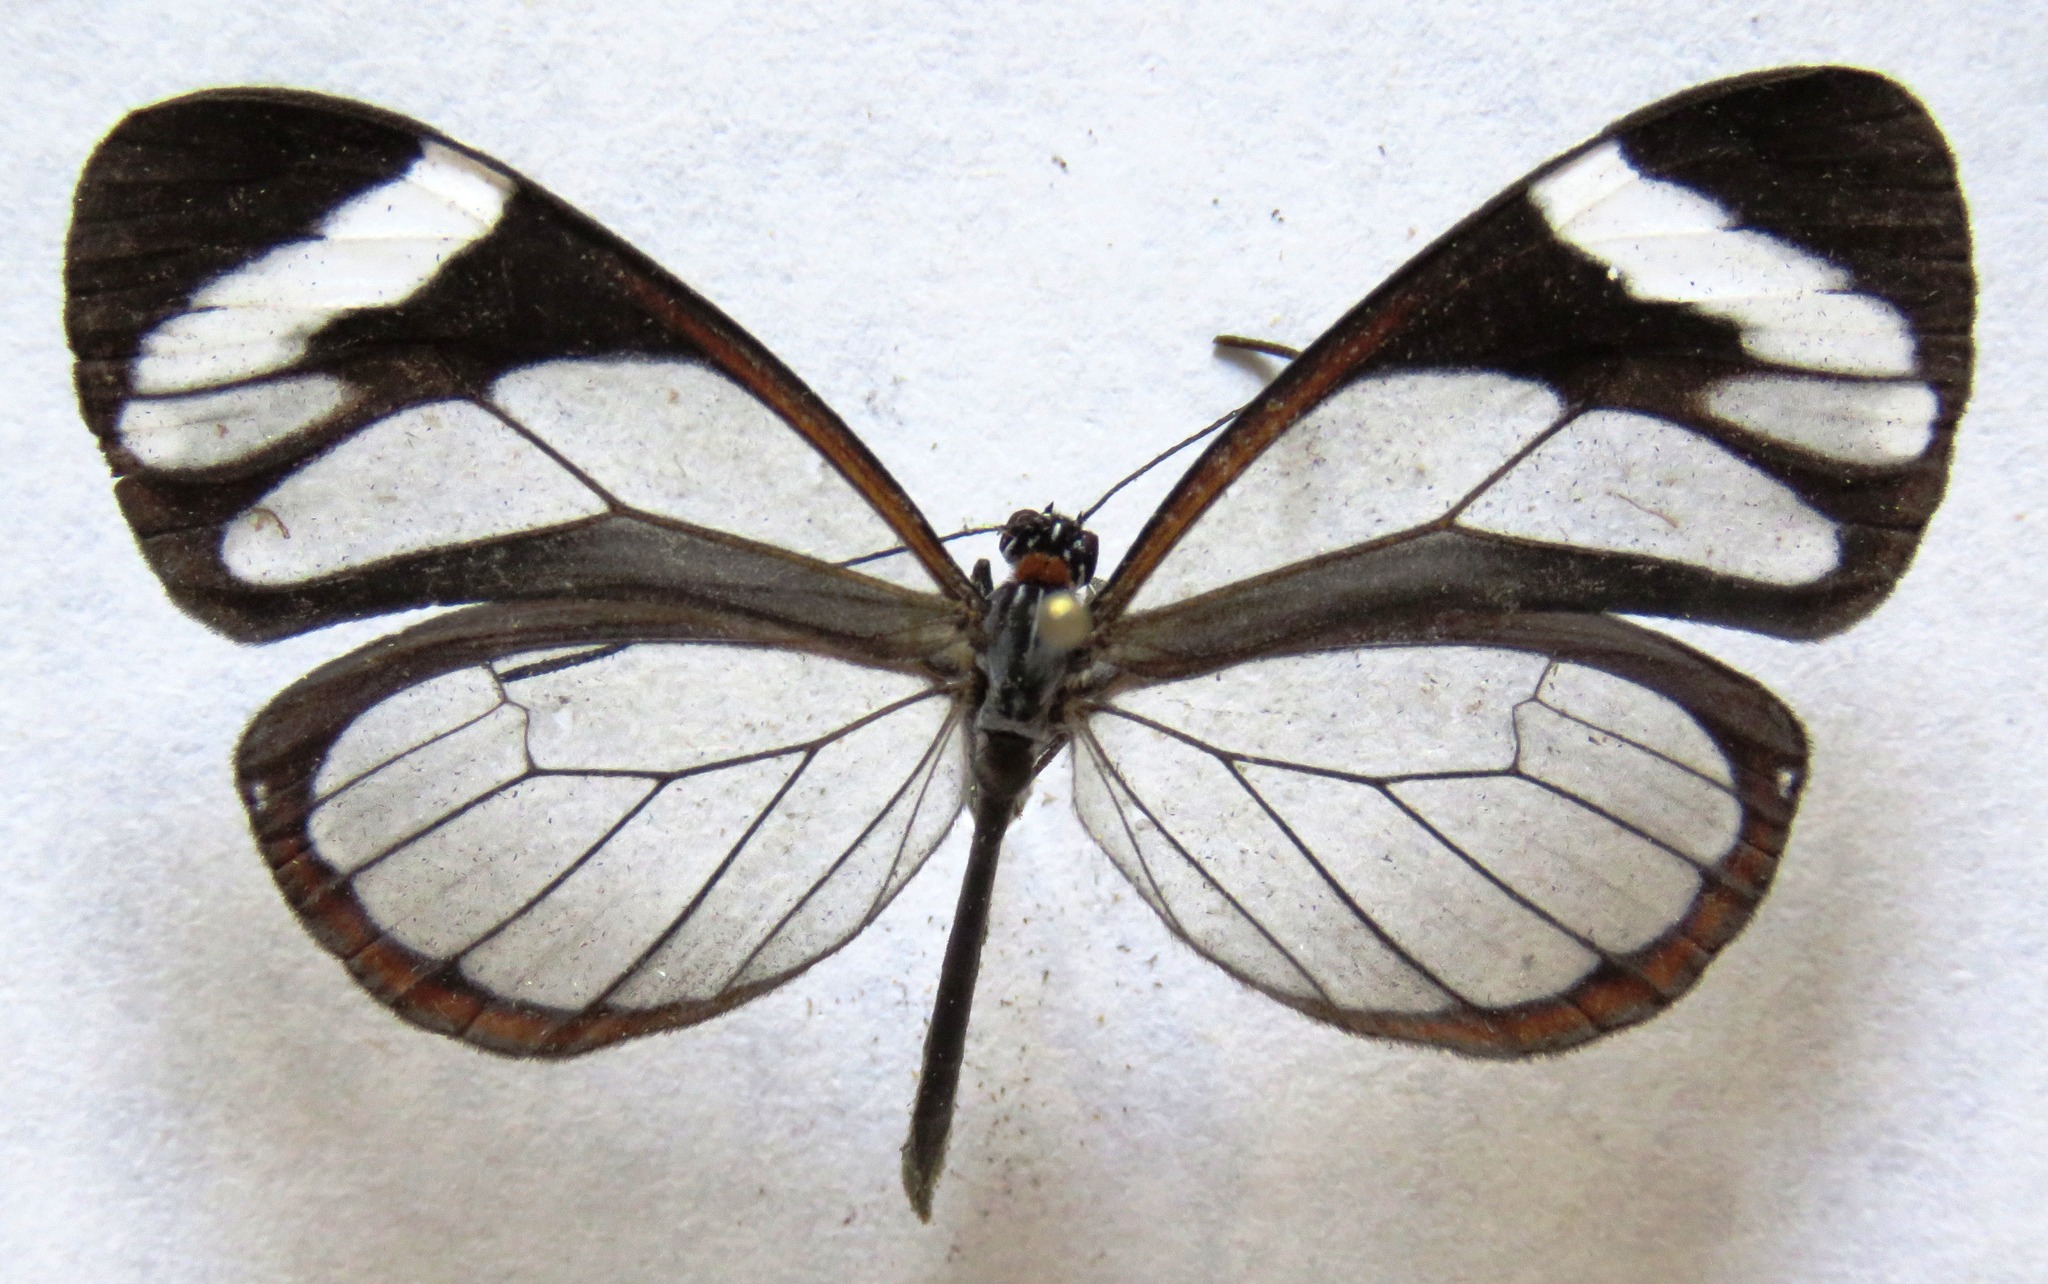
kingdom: Animalia
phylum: Arthropoda
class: Insecta
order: Lepidoptera
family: Nymphalidae
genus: Ithomia
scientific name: Ithomia patilla
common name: Patilla clearwing
